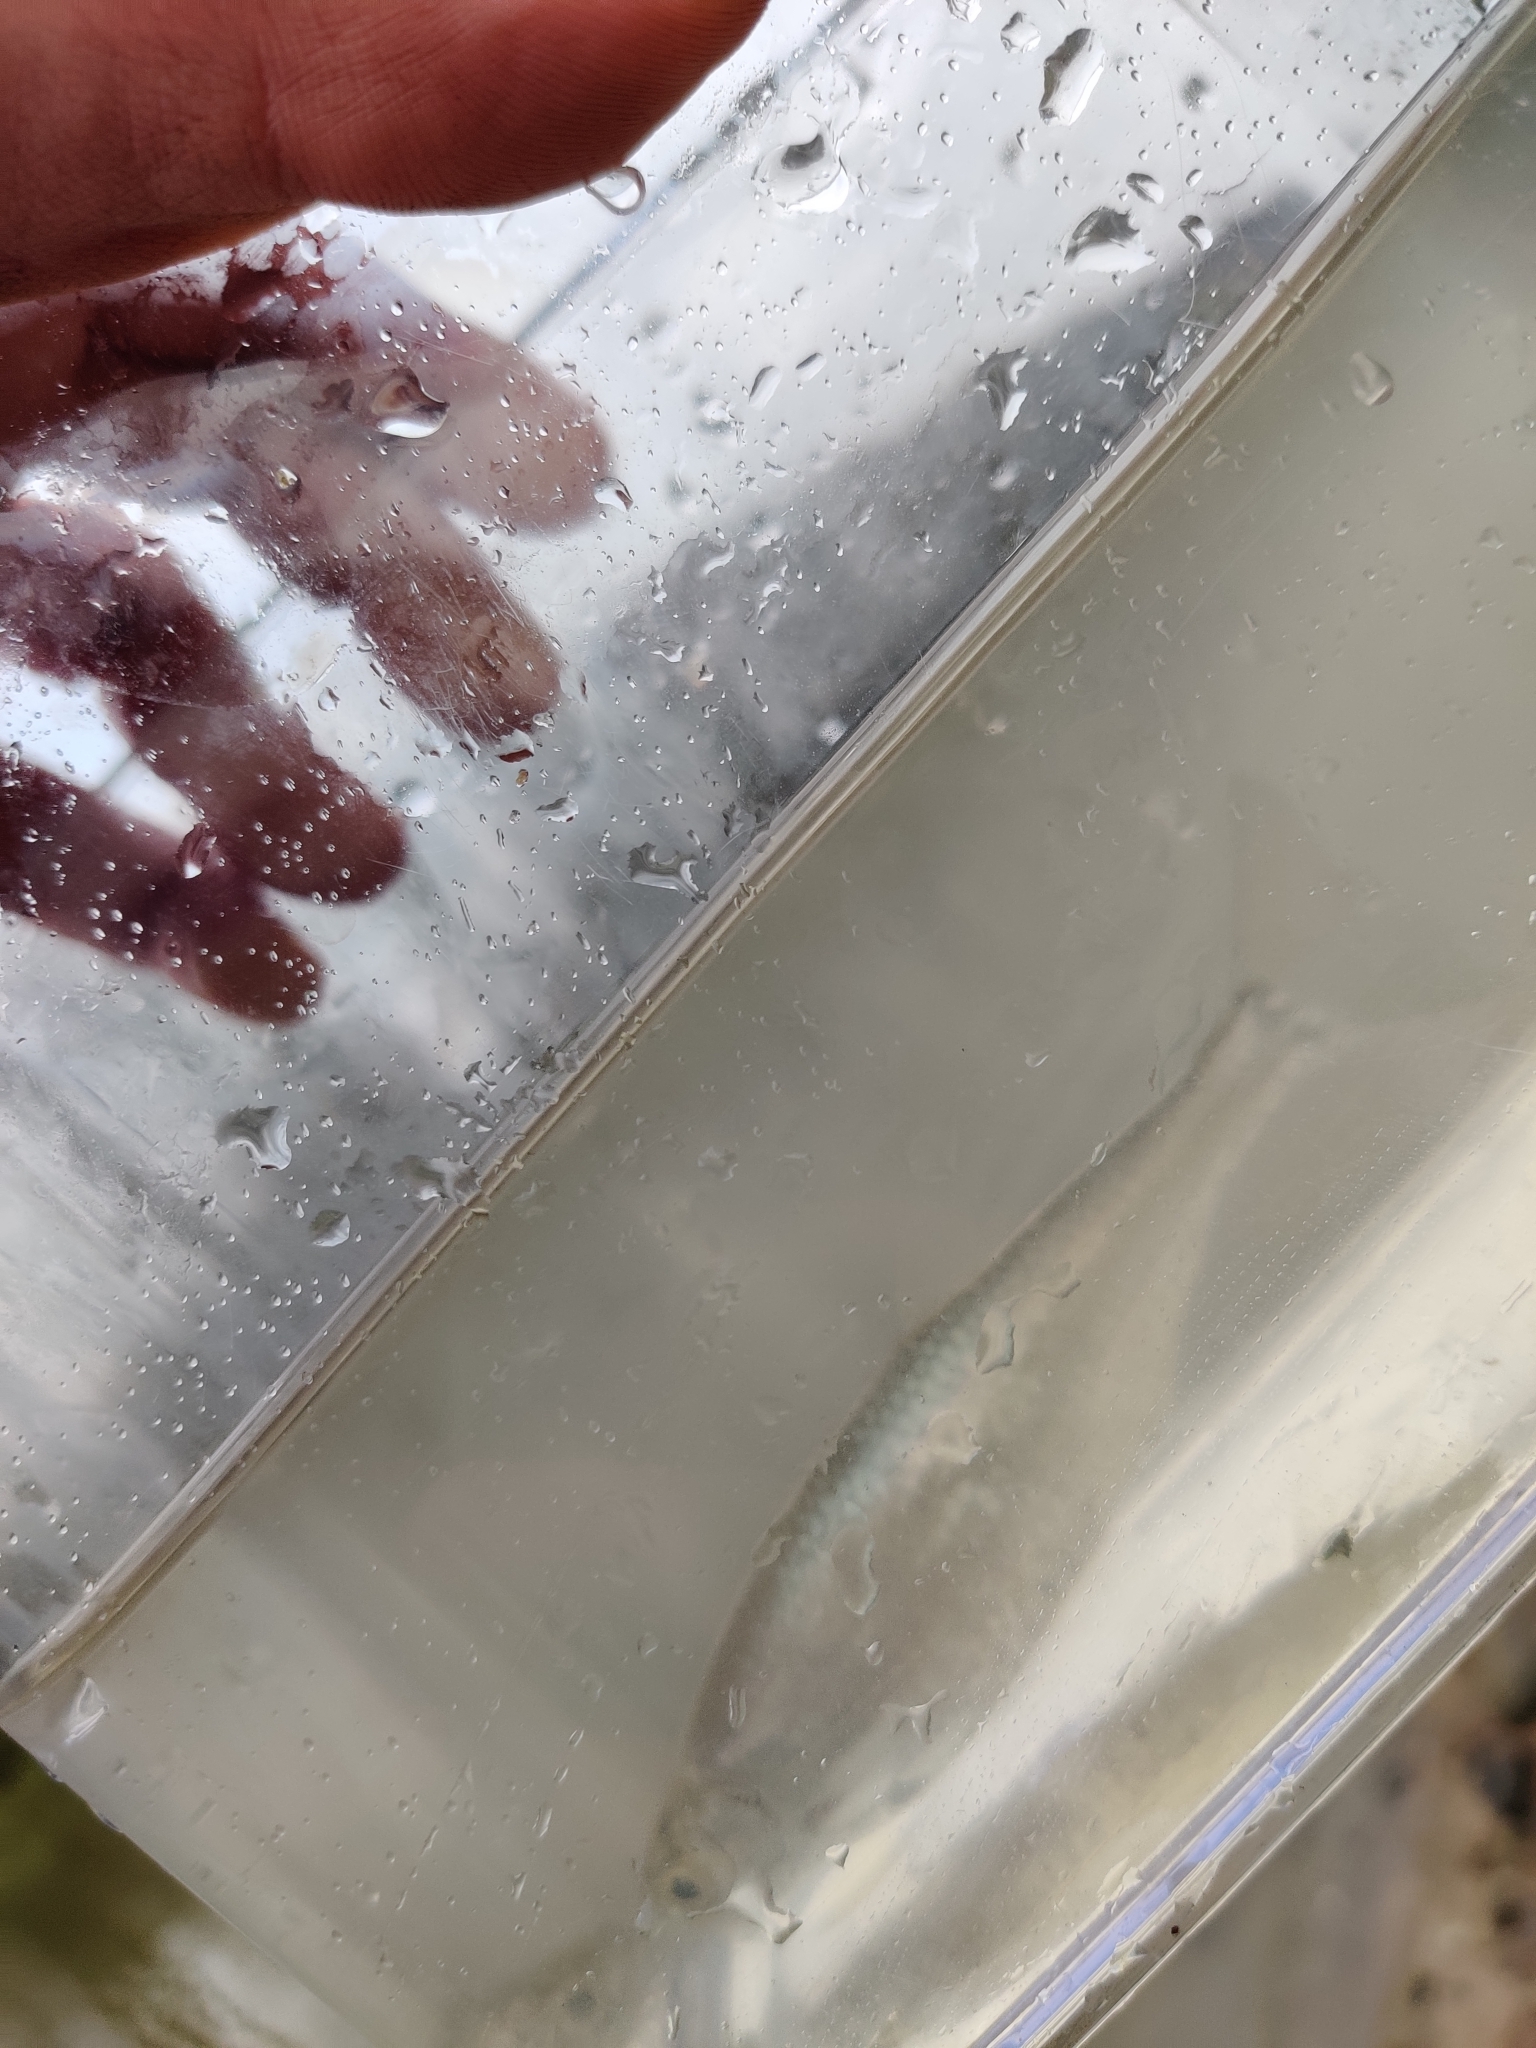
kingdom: Animalia
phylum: Chordata
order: Cypriniformes
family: Cyprinidae
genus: Alburnus
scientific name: Alburnus alburnus
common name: Bleak
